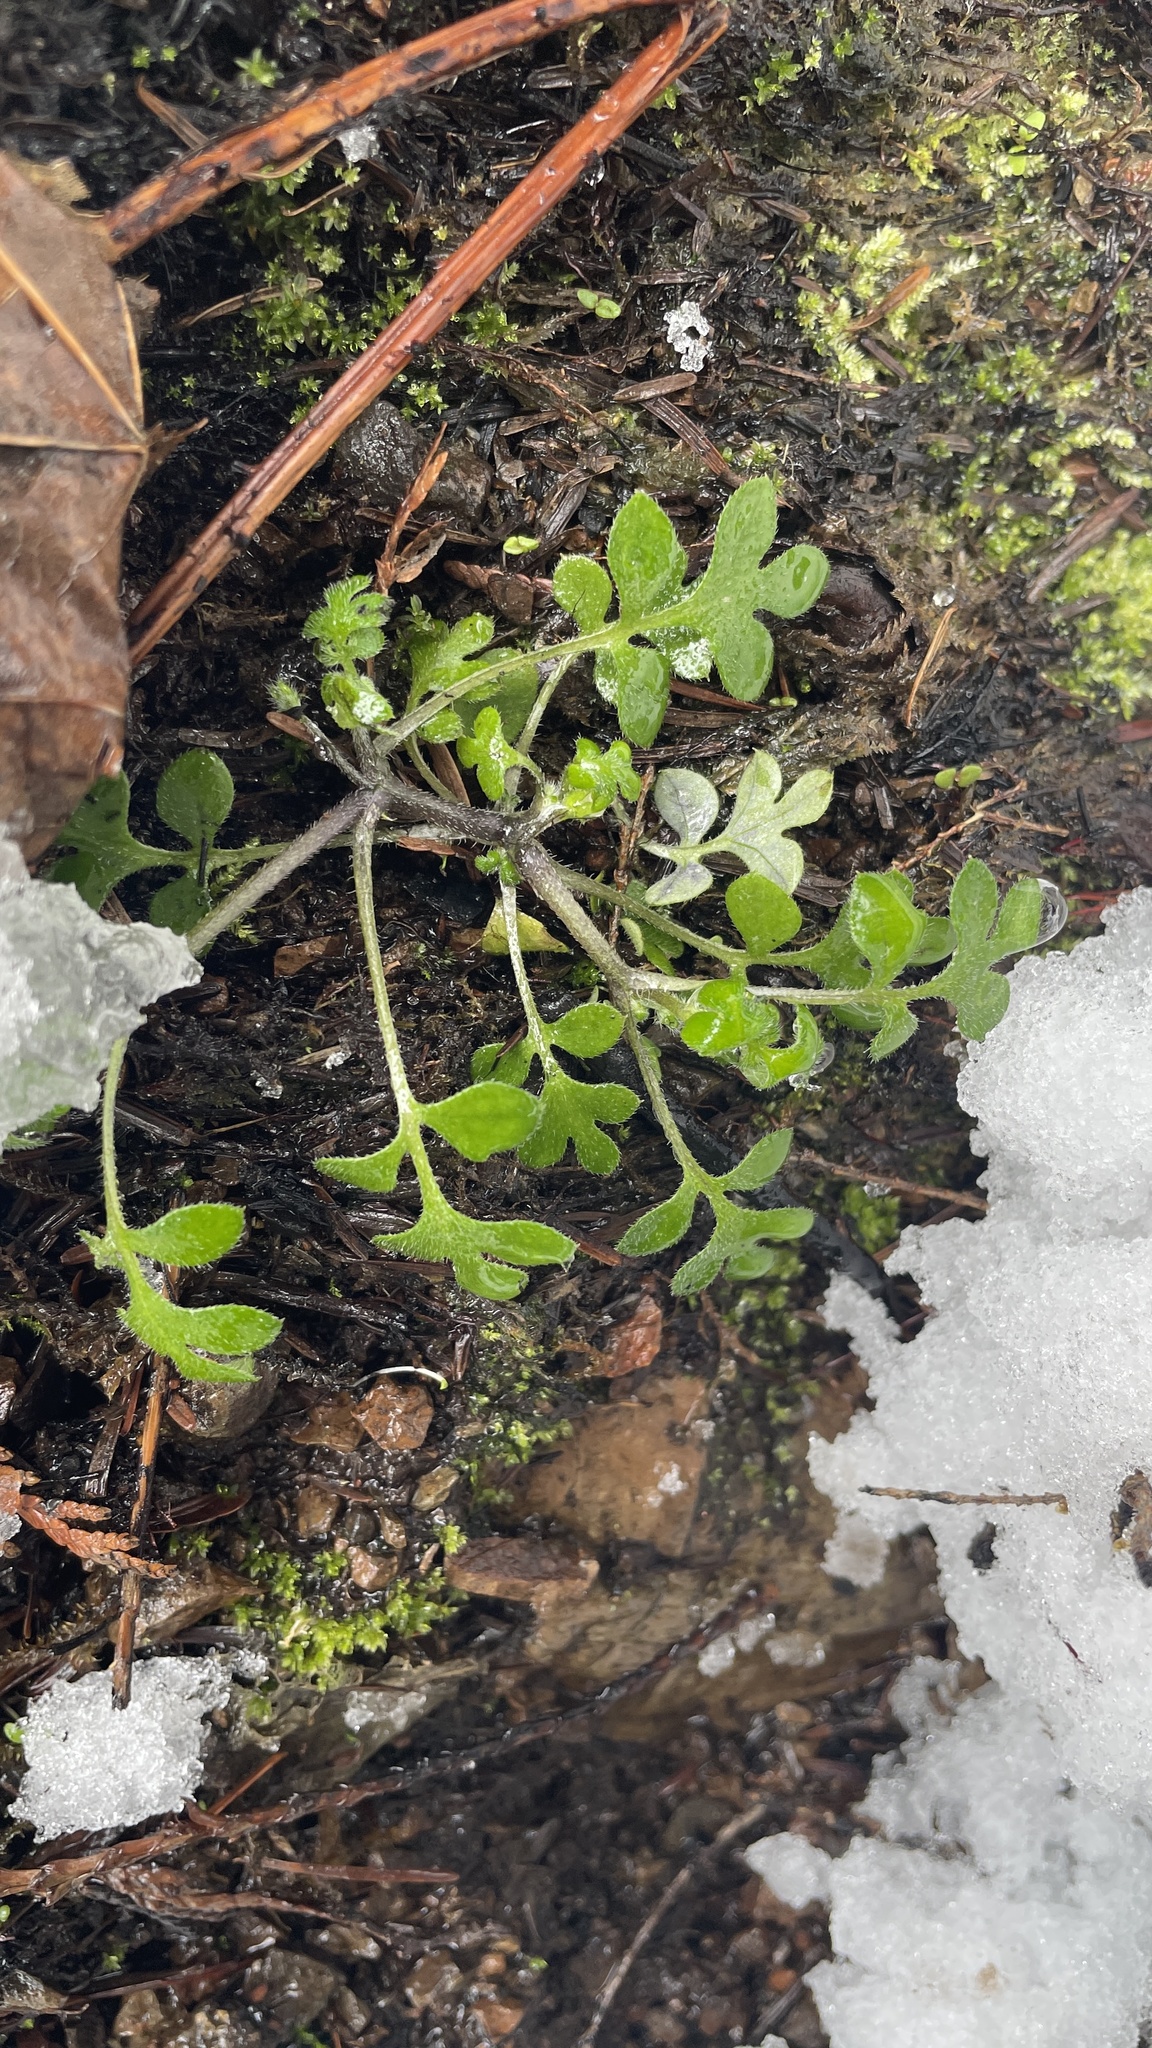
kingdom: Plantae
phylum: Tracheophyta
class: Magnoliopsida
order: Boraginales
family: Hydrophyllaceae
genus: Nemophila
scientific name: Nemophila parviflora
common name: Small-flowered baby-blue-eyes
